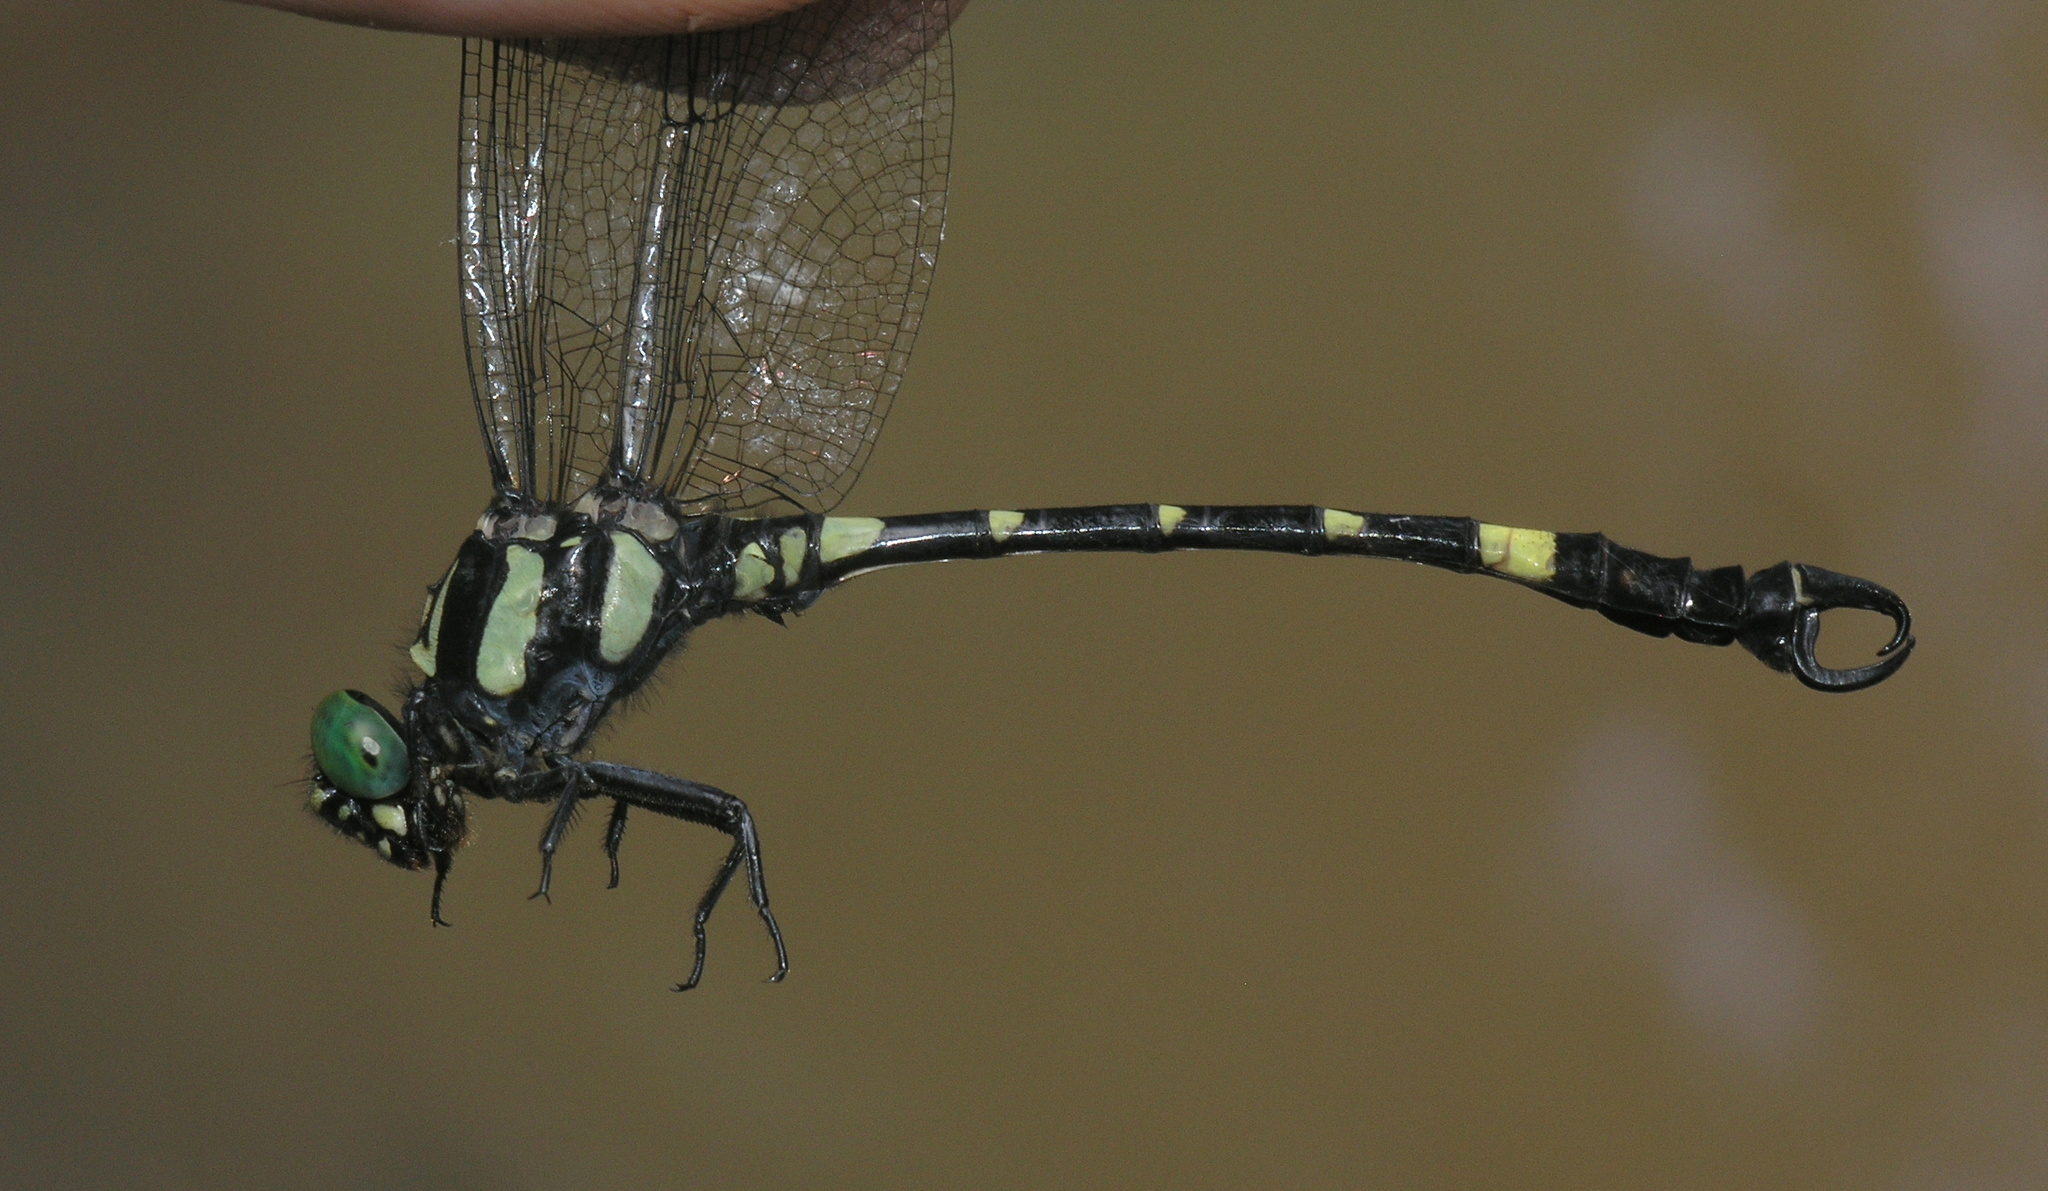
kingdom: Animalia
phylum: Arthropoda
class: Insecta
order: Odonata
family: Gomphidae
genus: Lamelligomphus
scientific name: Lamelligomphus castor
